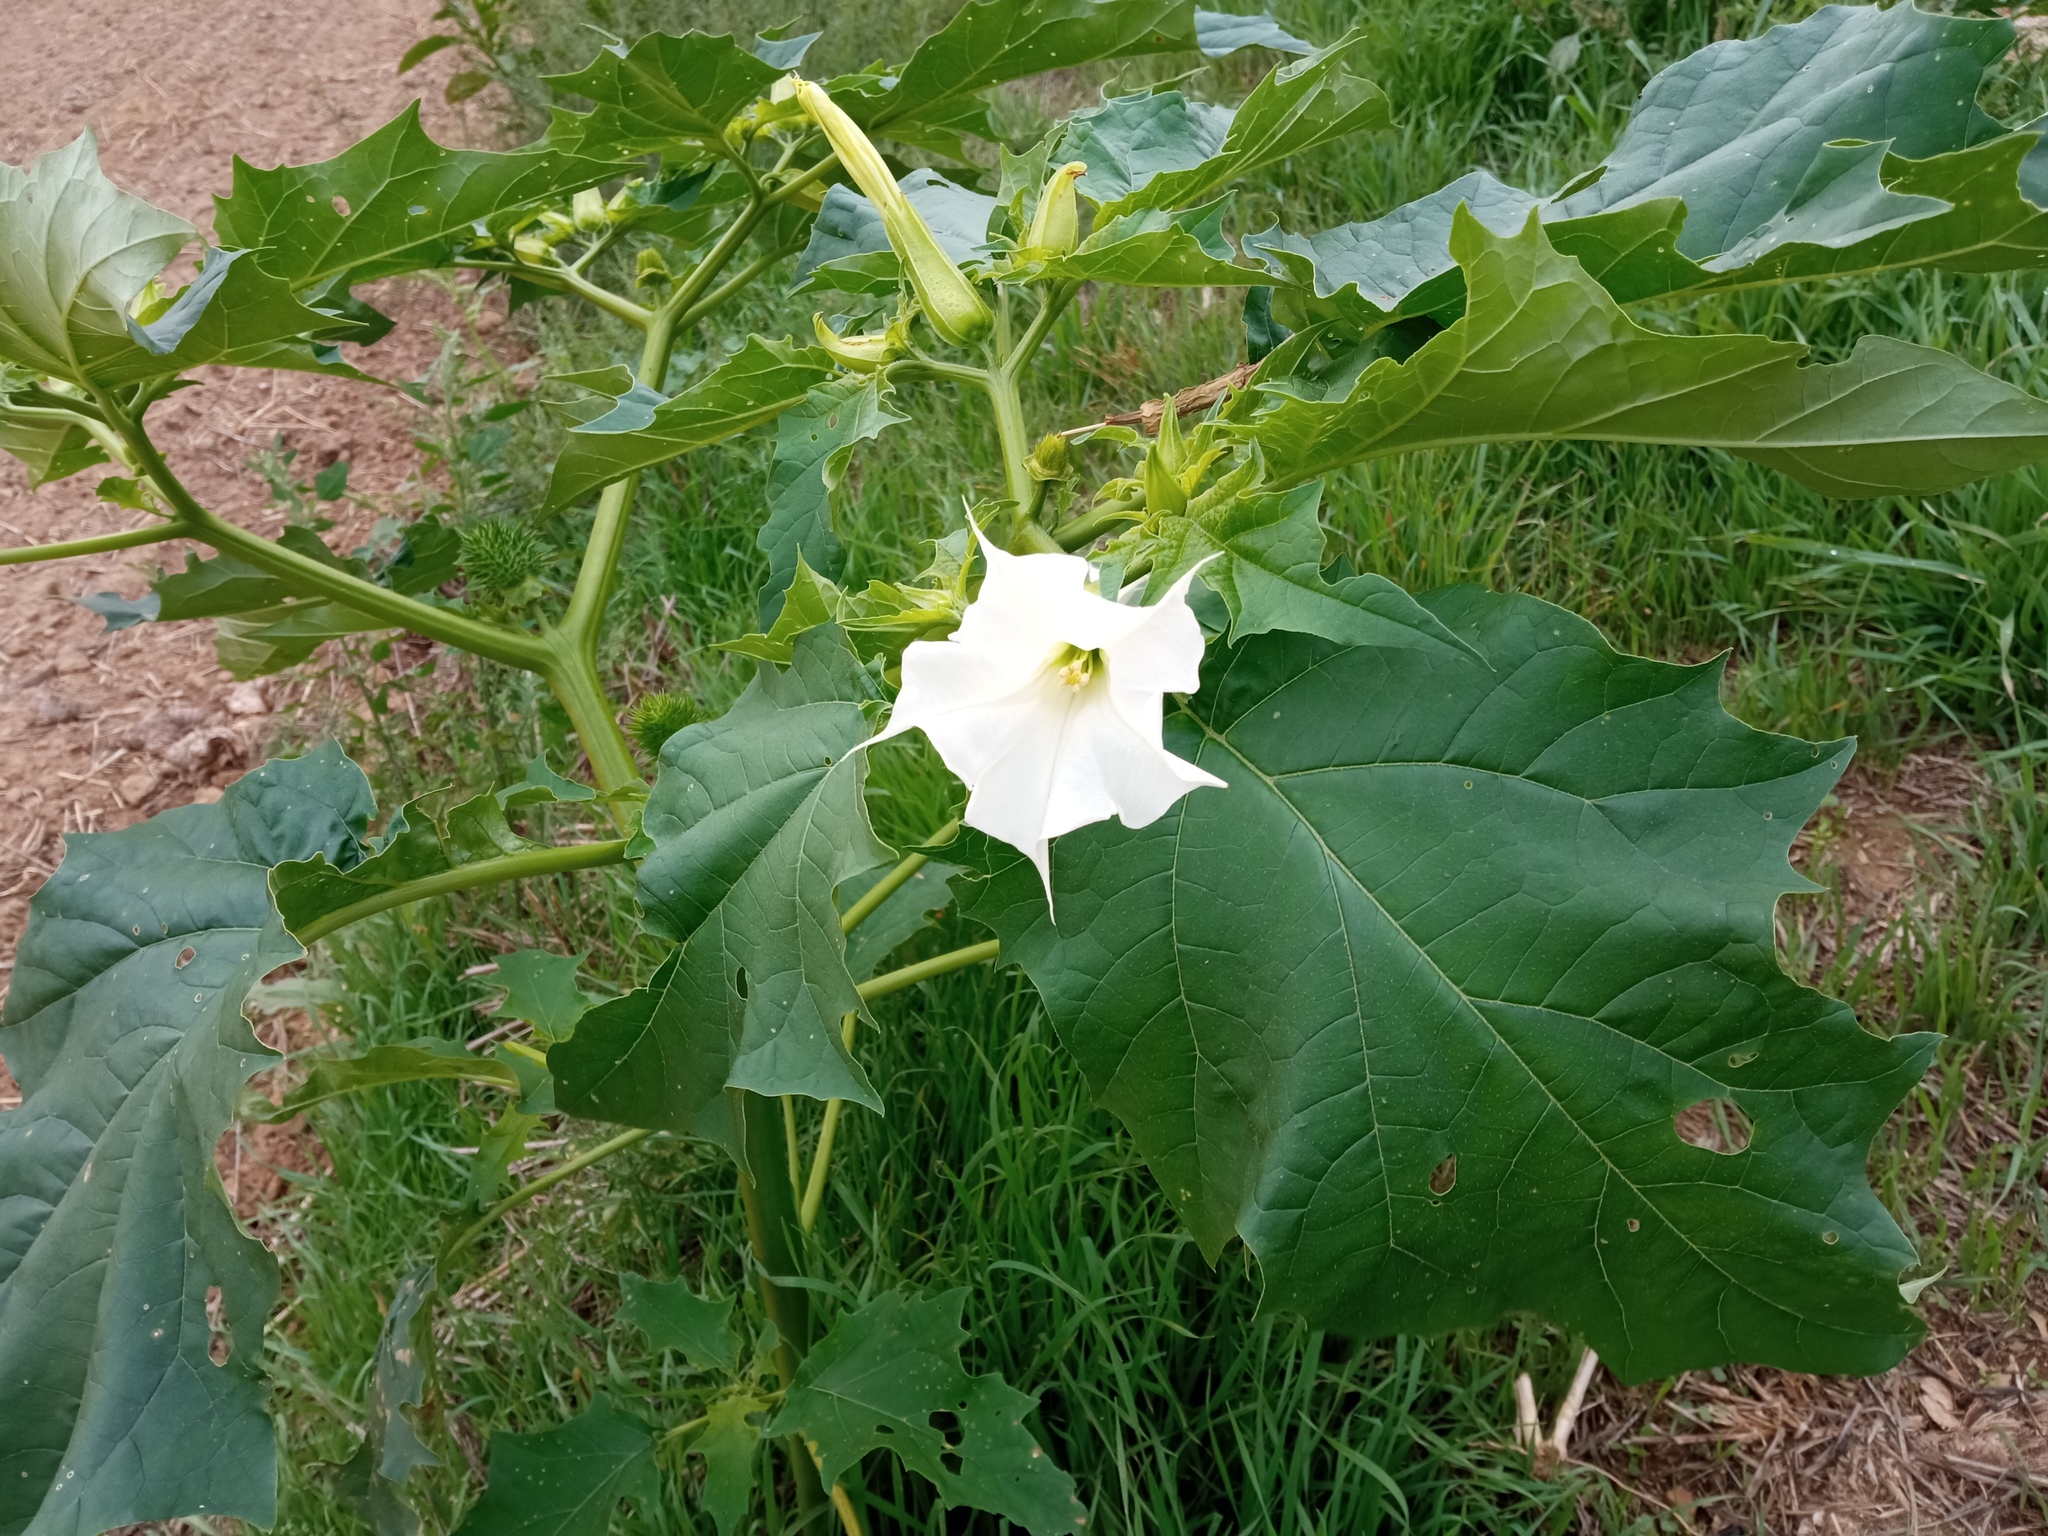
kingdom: Plantae
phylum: Tracheophyta
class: Magnoliopsida
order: Solanales
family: Solanaceae
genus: Datura
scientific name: Datura stramonium
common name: Thorn-apple
